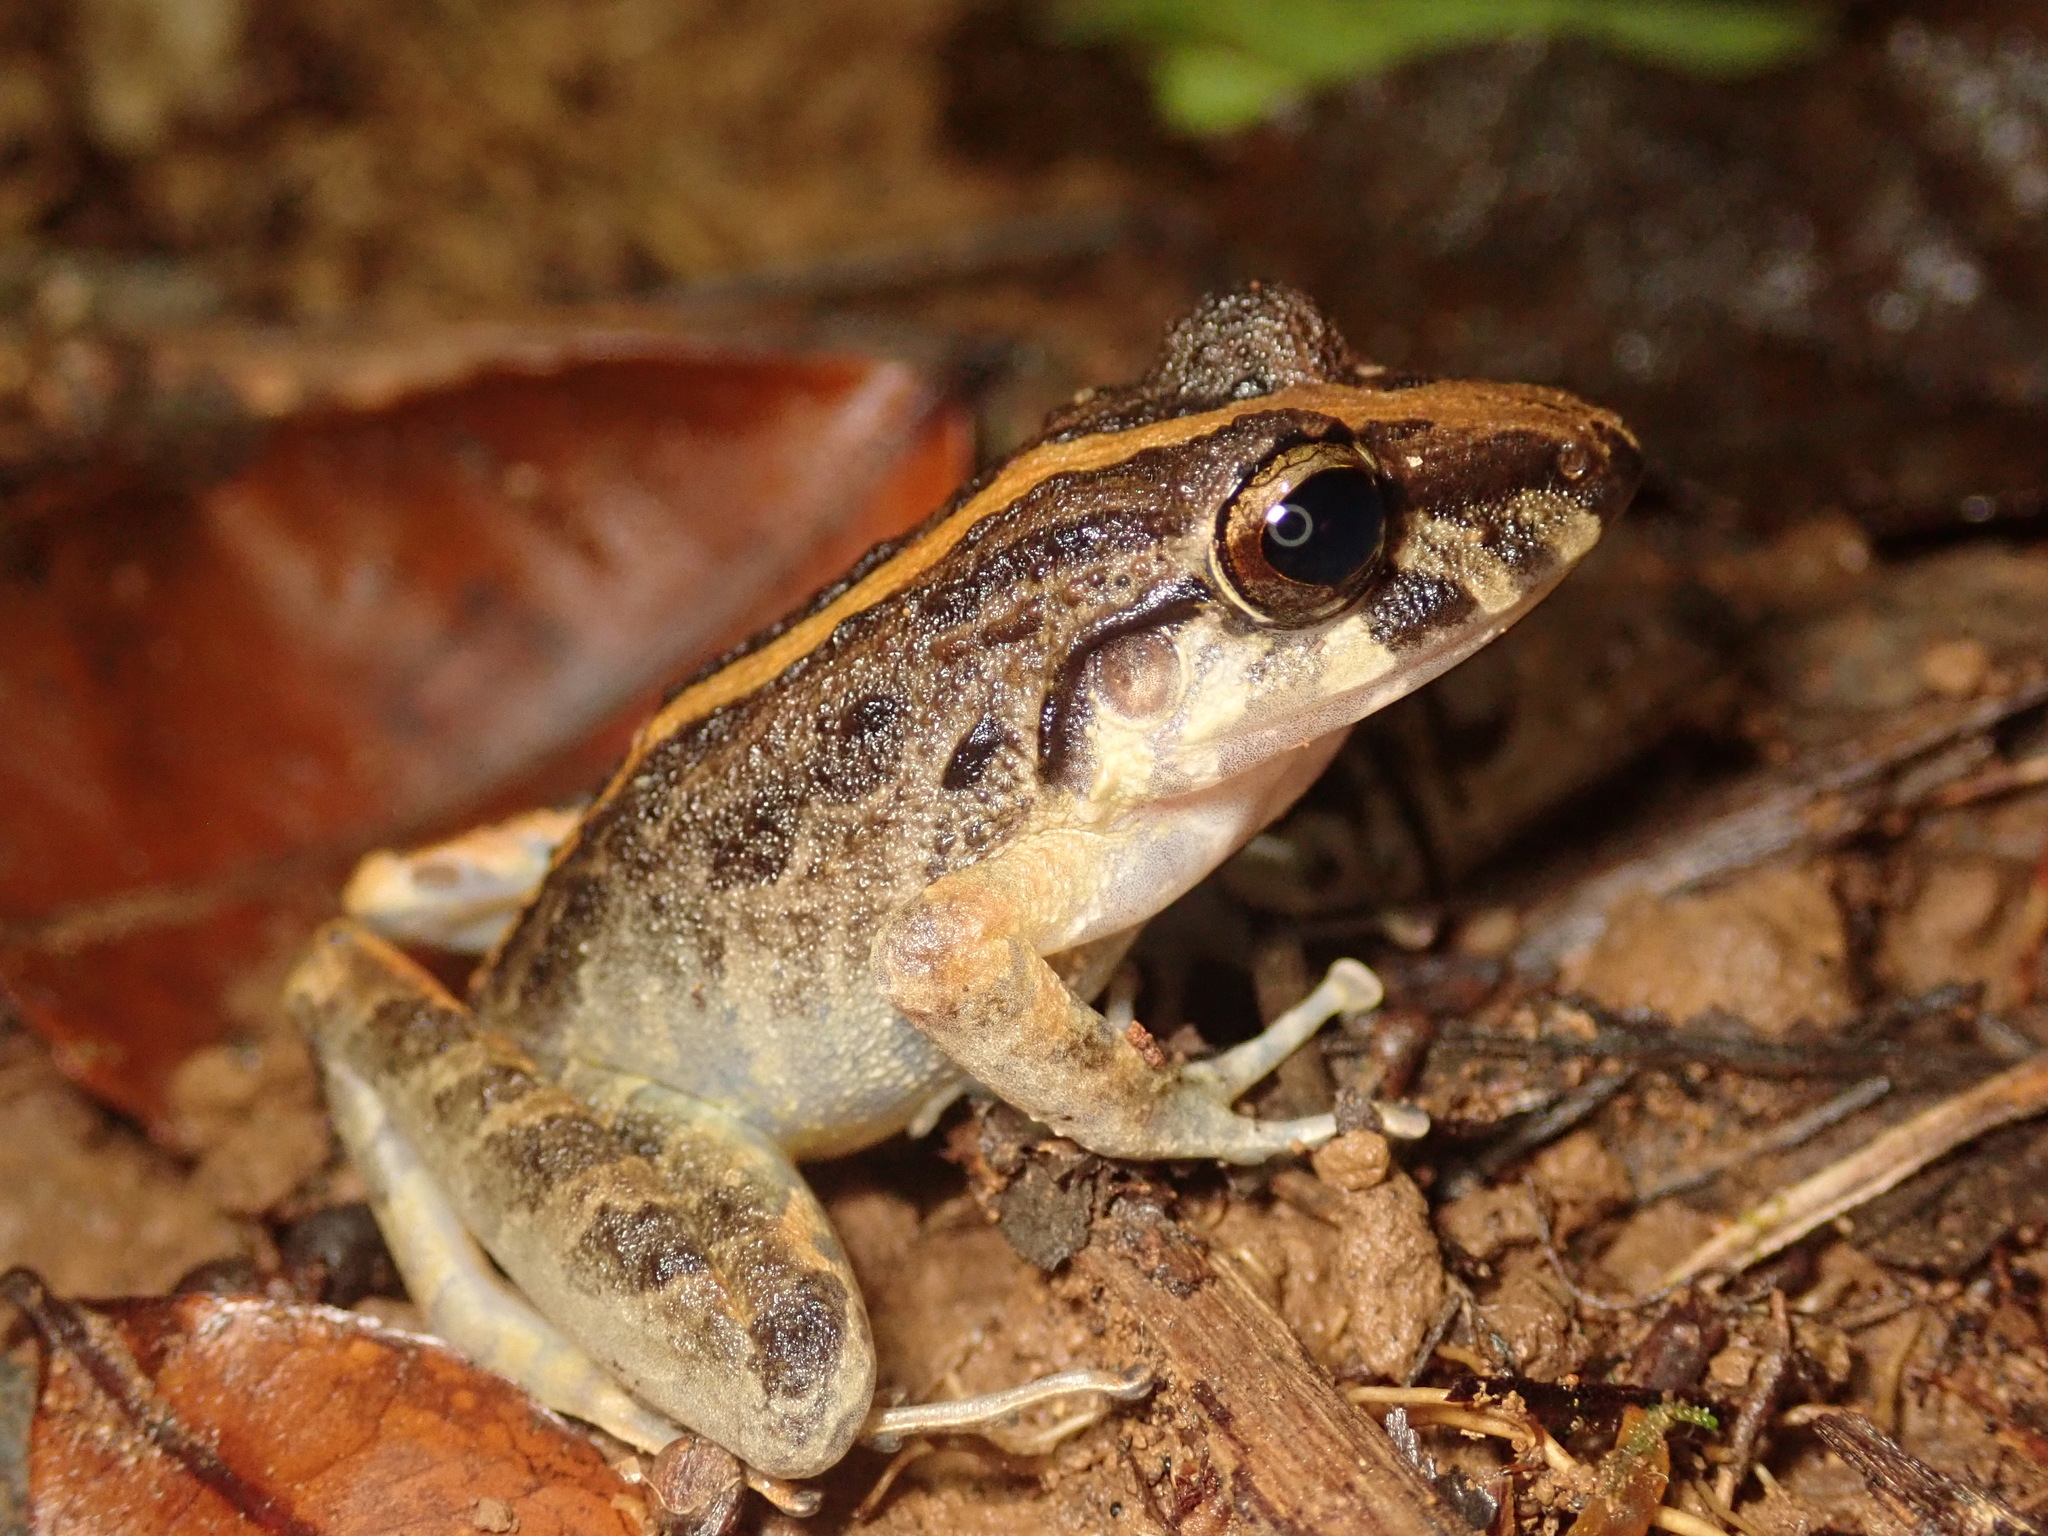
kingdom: Animalia
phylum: Chordata
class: Amphibia
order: Anura
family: Craugastoridae
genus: Craugastor
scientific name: Craugastor fitzingeri
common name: Fitzinger's robber frog
